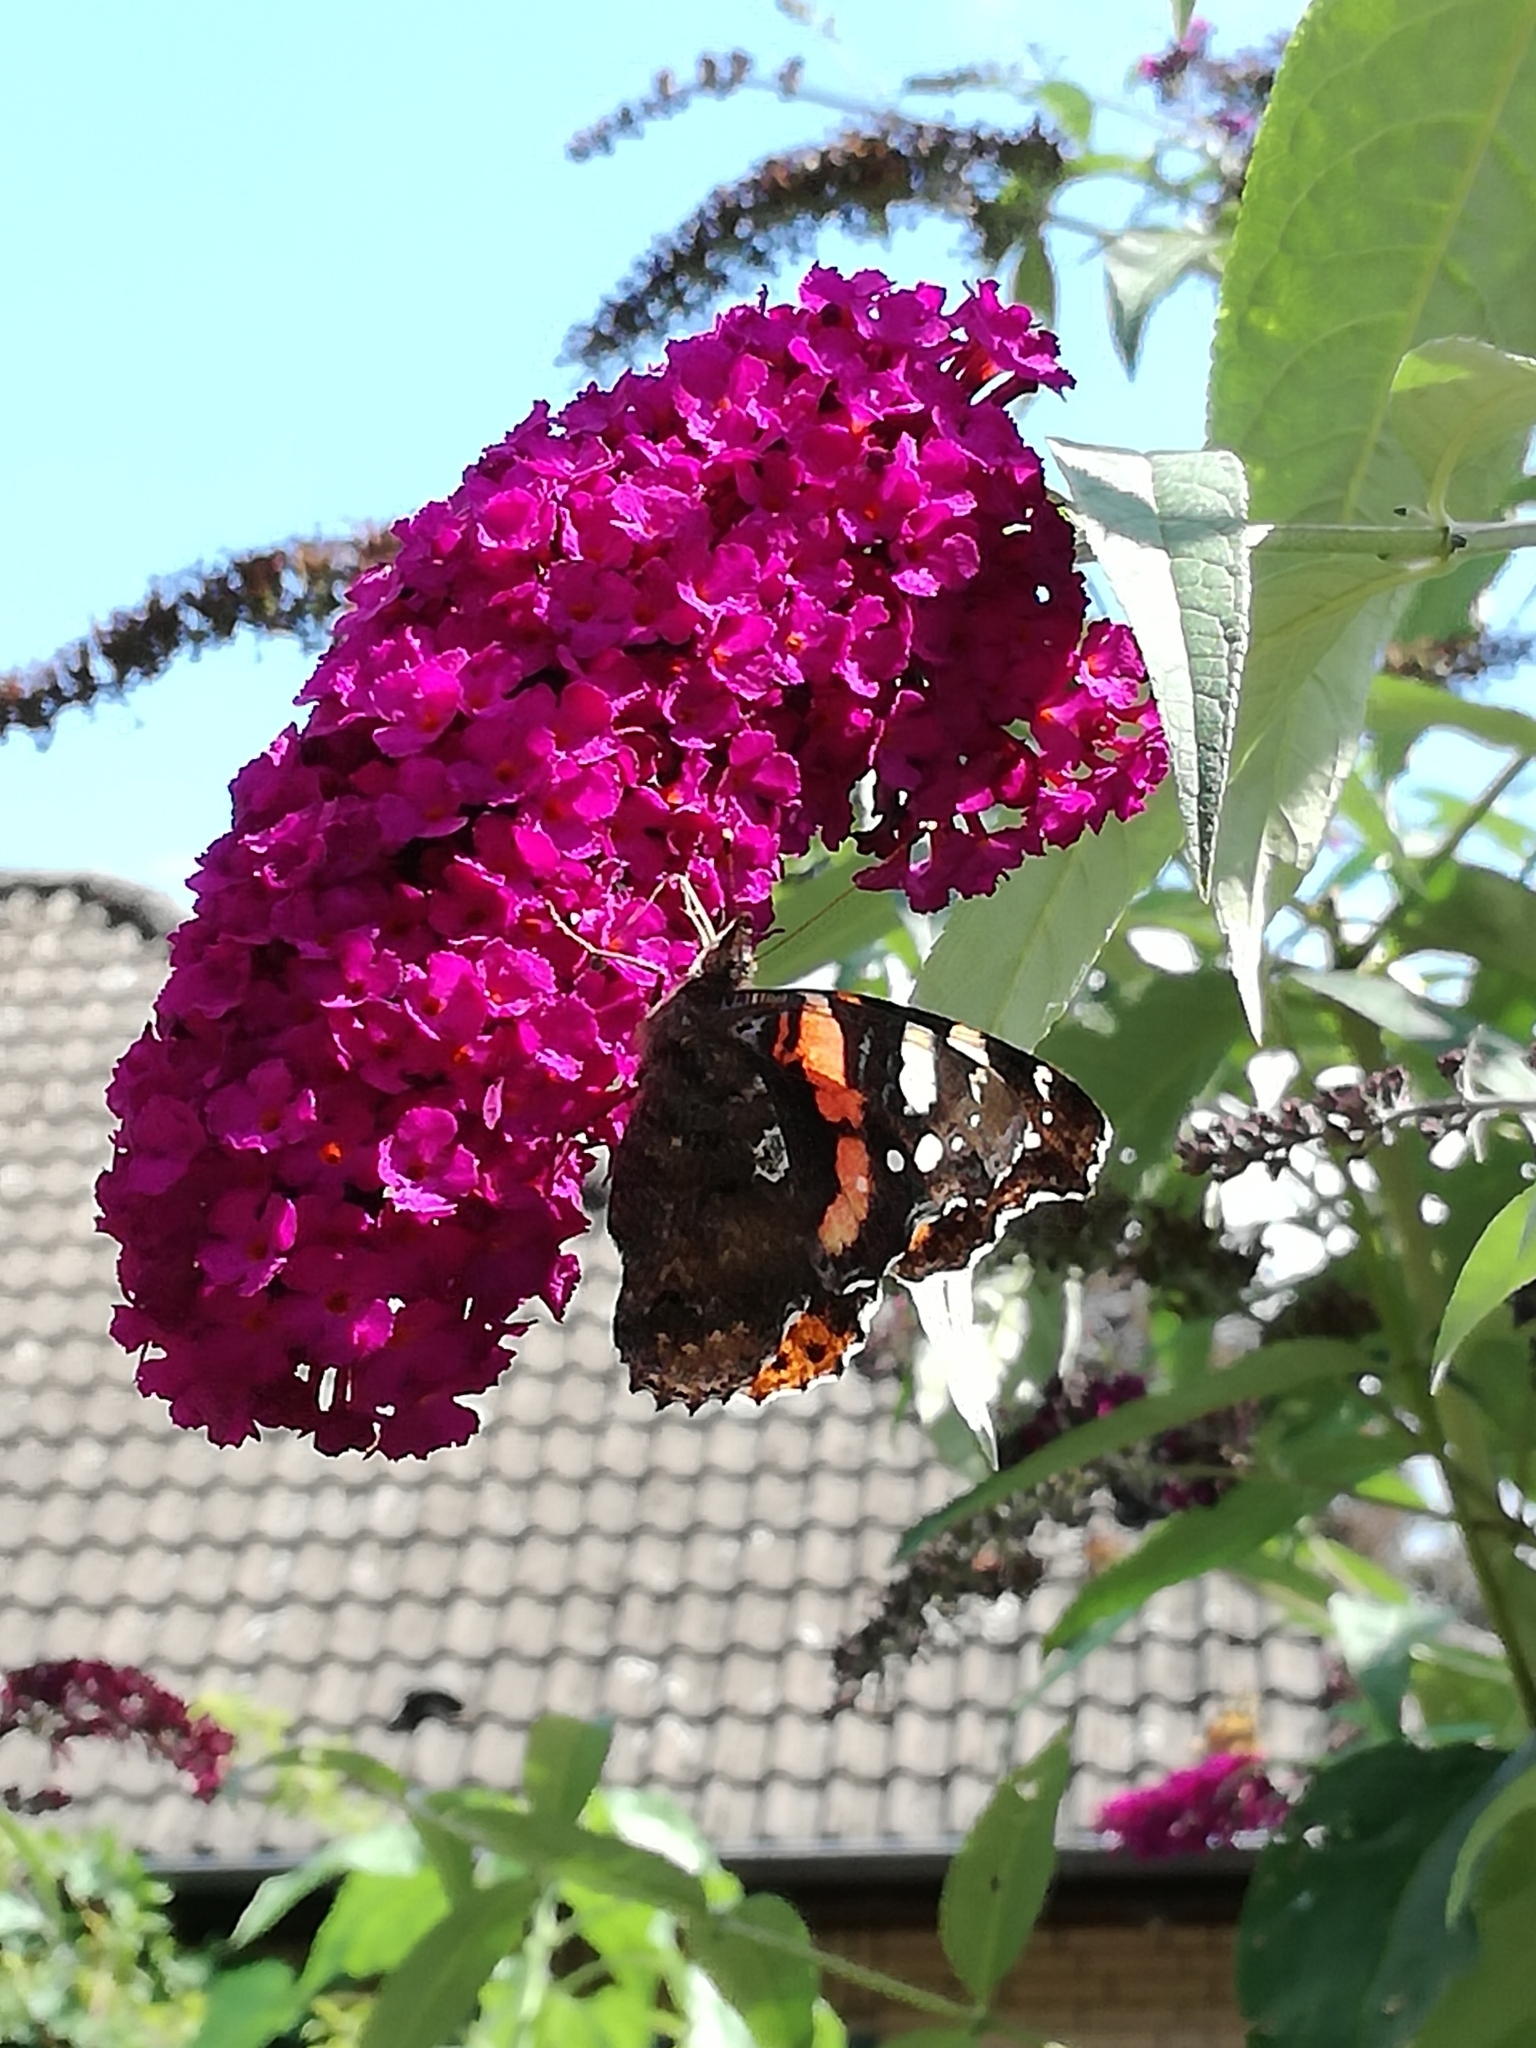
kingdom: Animalia
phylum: Arthropoda
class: Insecta
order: Lepidoptera
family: Nymphalidae
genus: Vanessa
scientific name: Vanessa atalanta
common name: Red admiral
